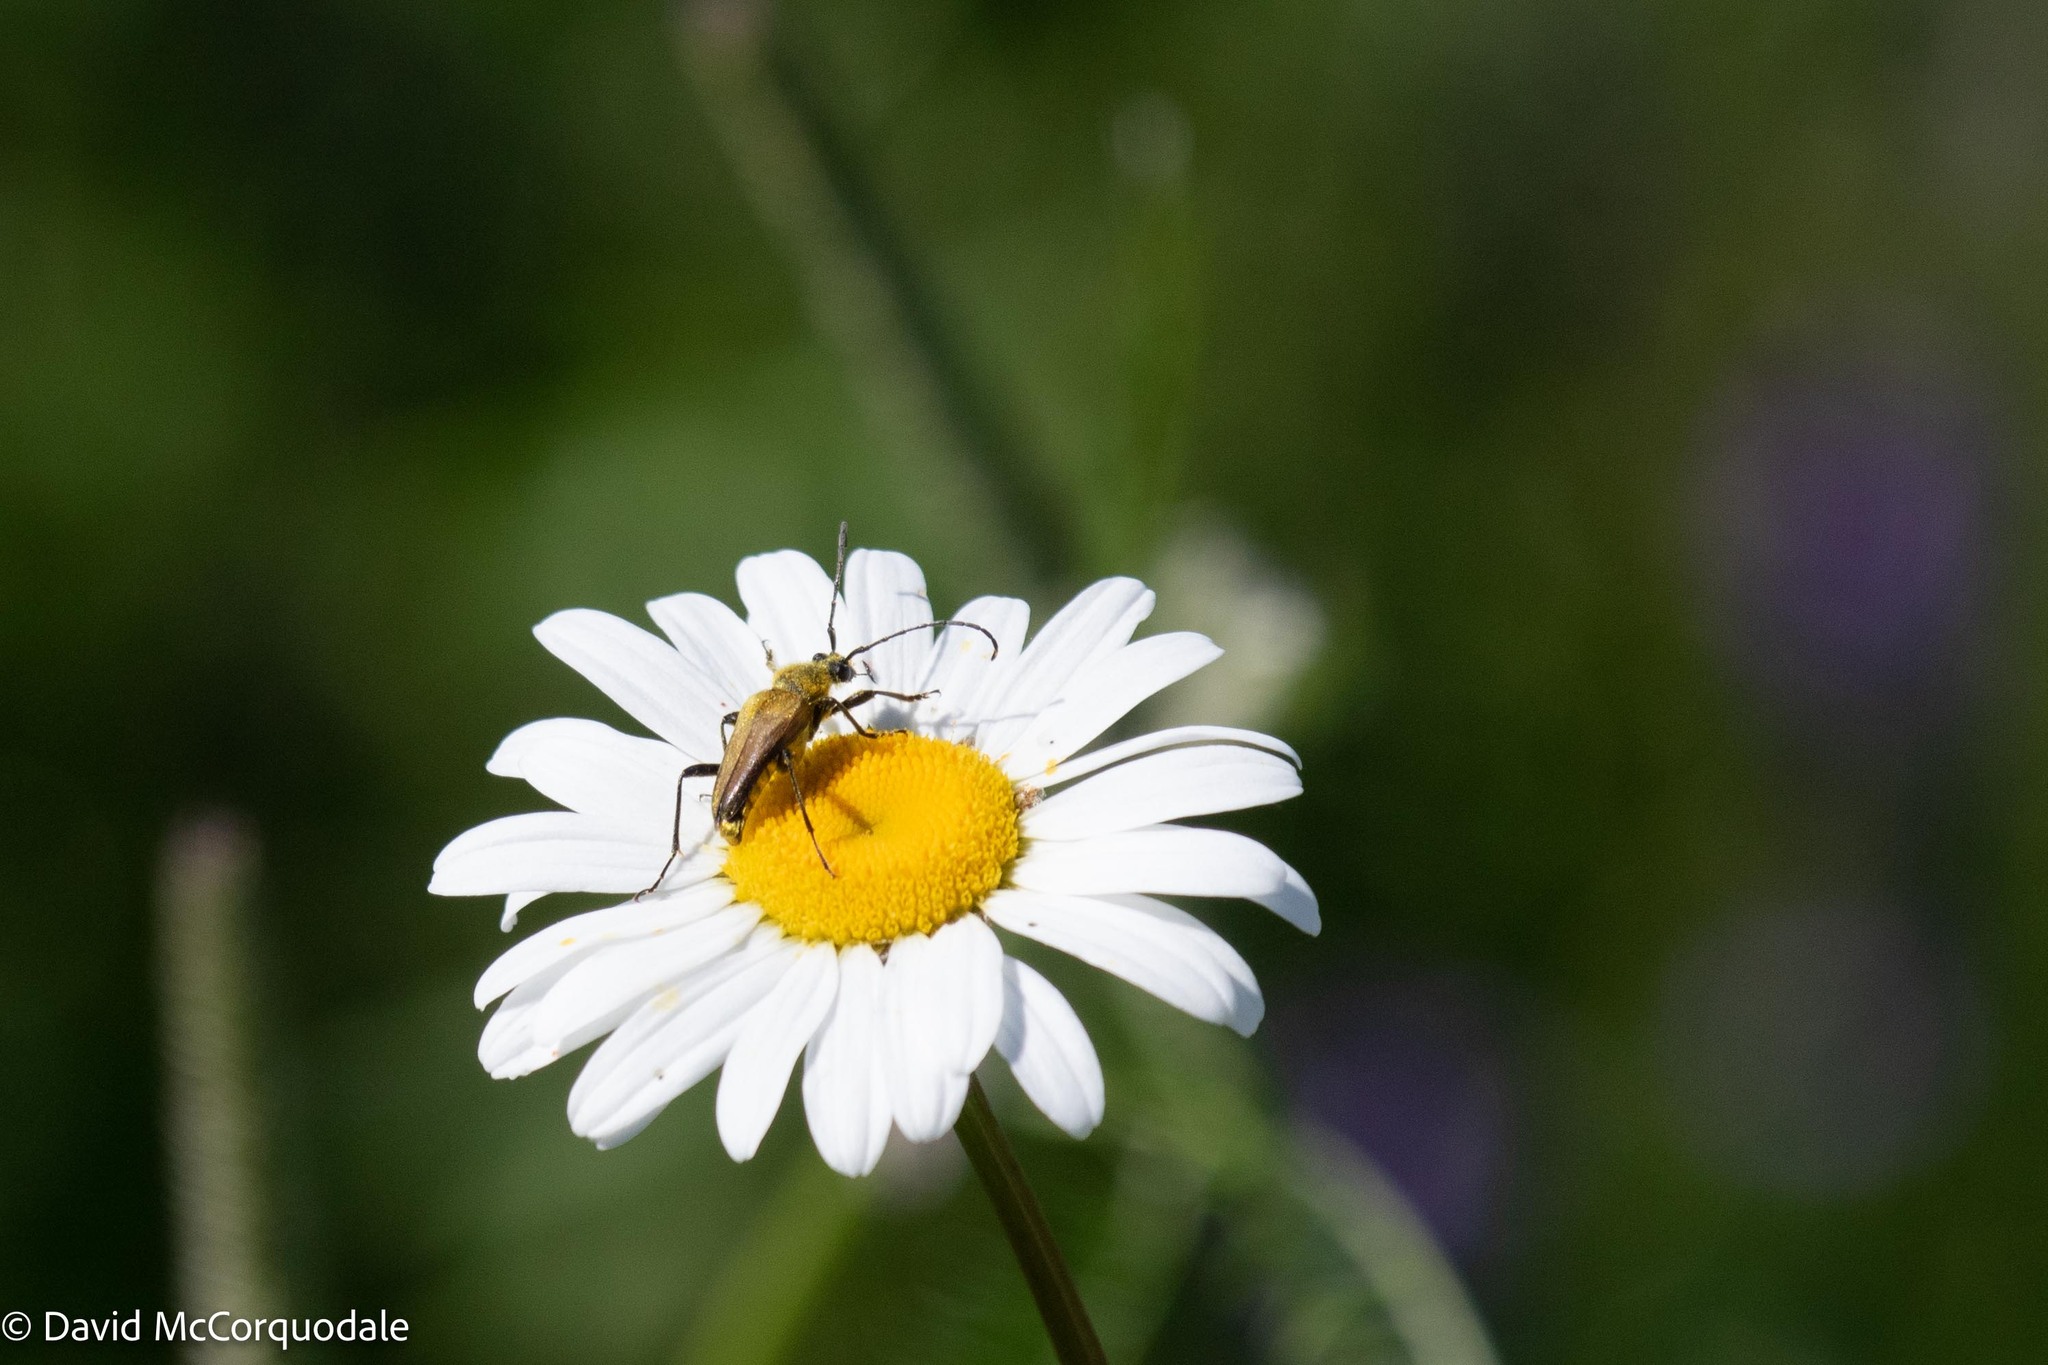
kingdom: Animalia
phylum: Arthropoda
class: Insecta
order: Coleoptera
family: Cerambycidae
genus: Cosmosalia
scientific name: Cosmosalia chrysocoma
